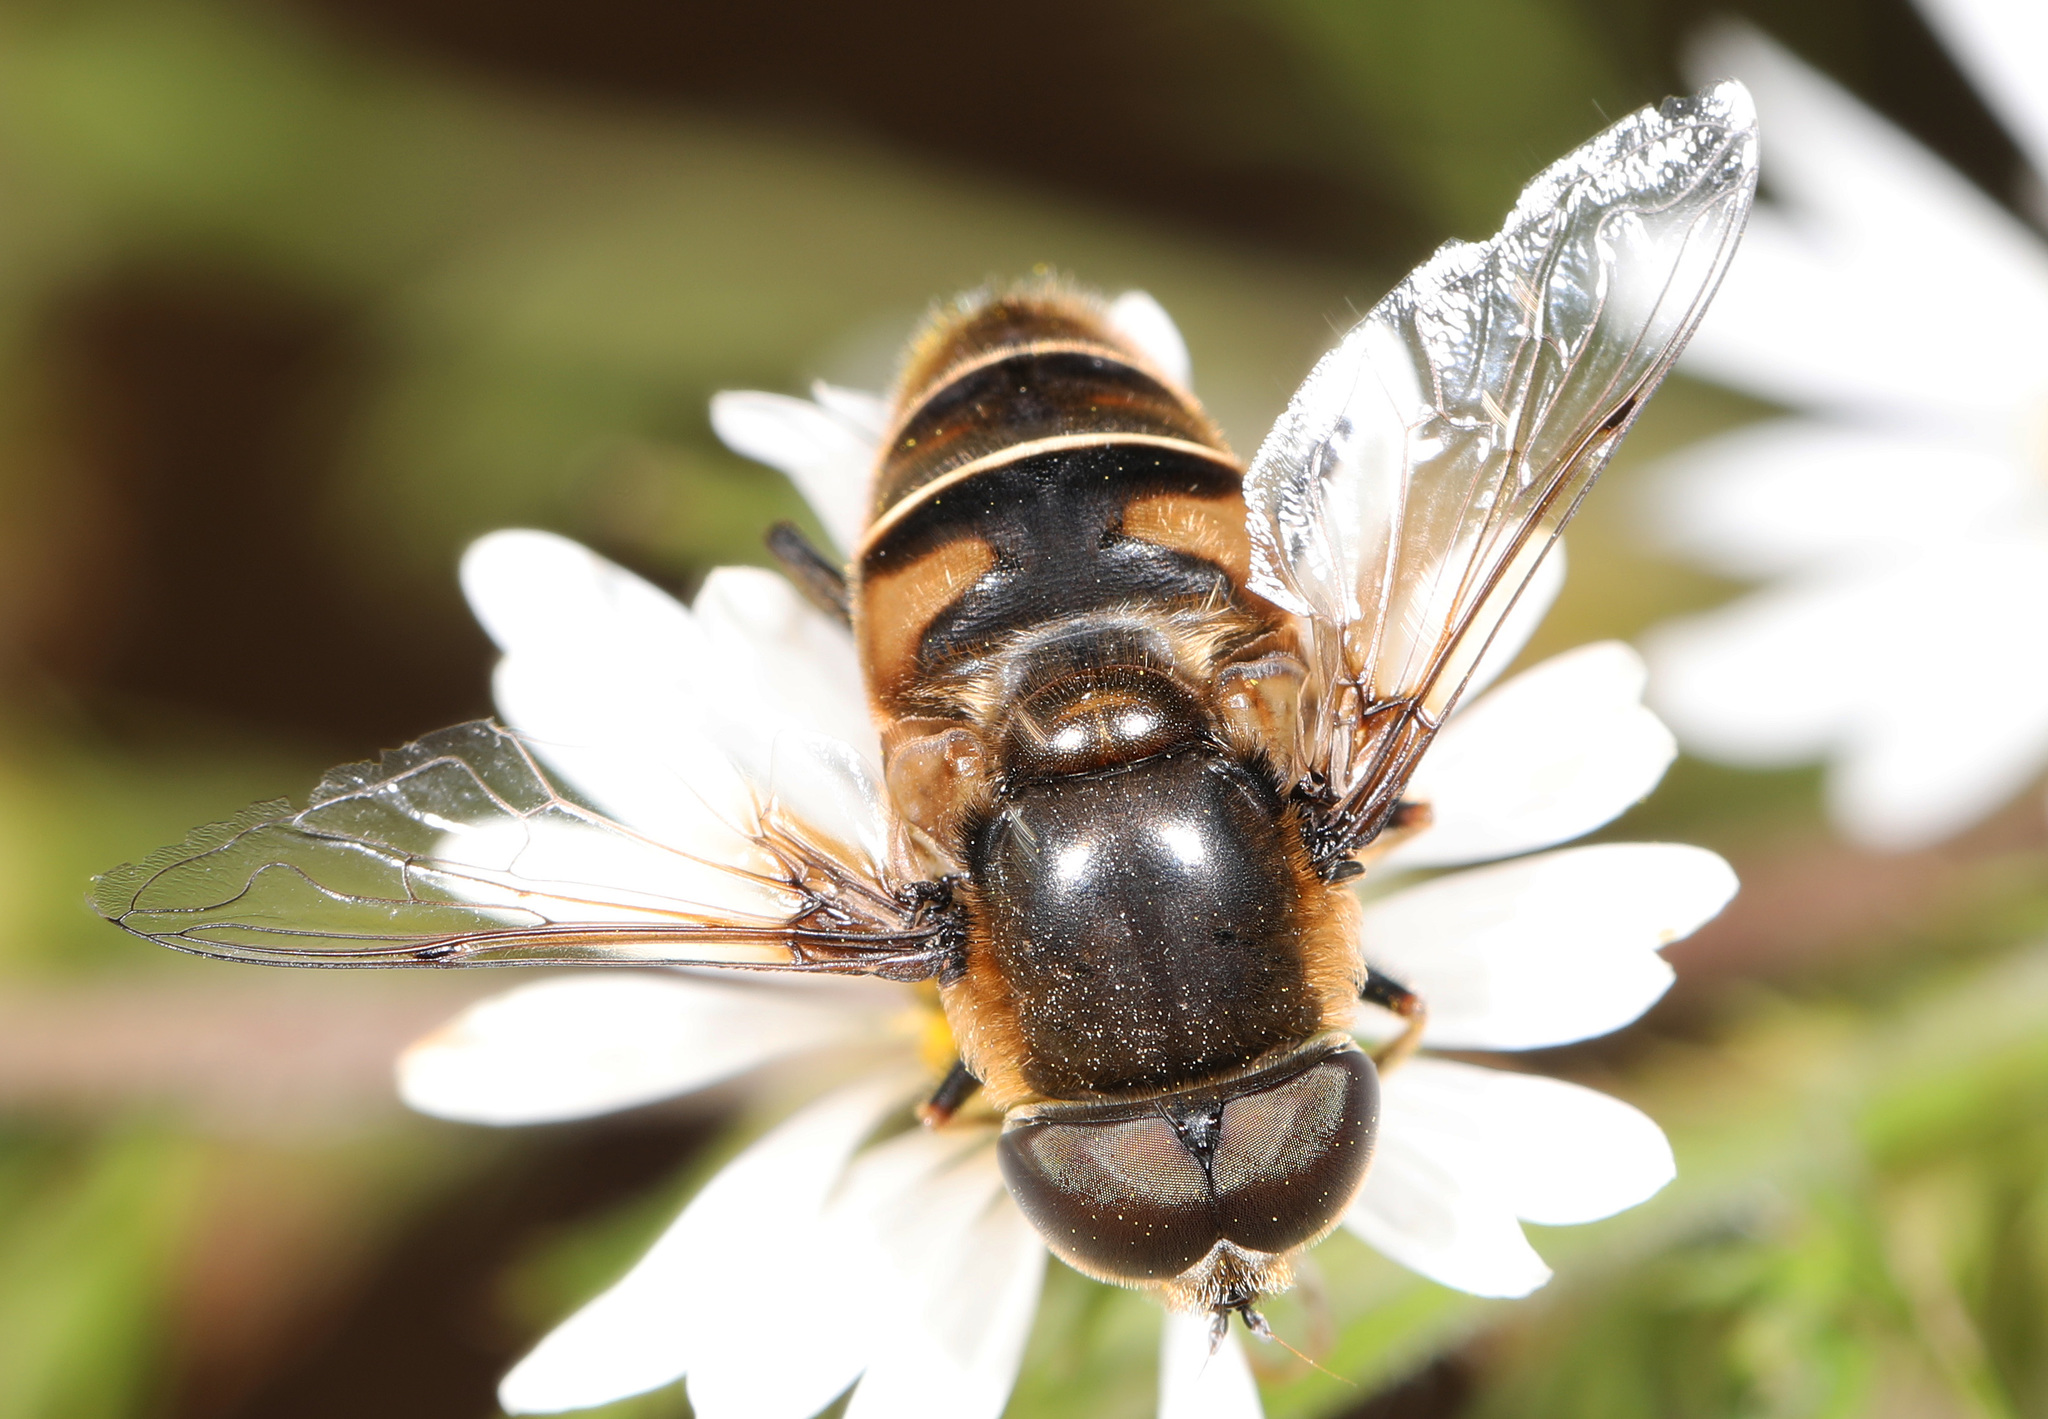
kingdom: Animalia
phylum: Arthropoda
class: Insecta
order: Diptera
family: Syrphidae
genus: Eristalis
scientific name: Eristalis dimidiata
